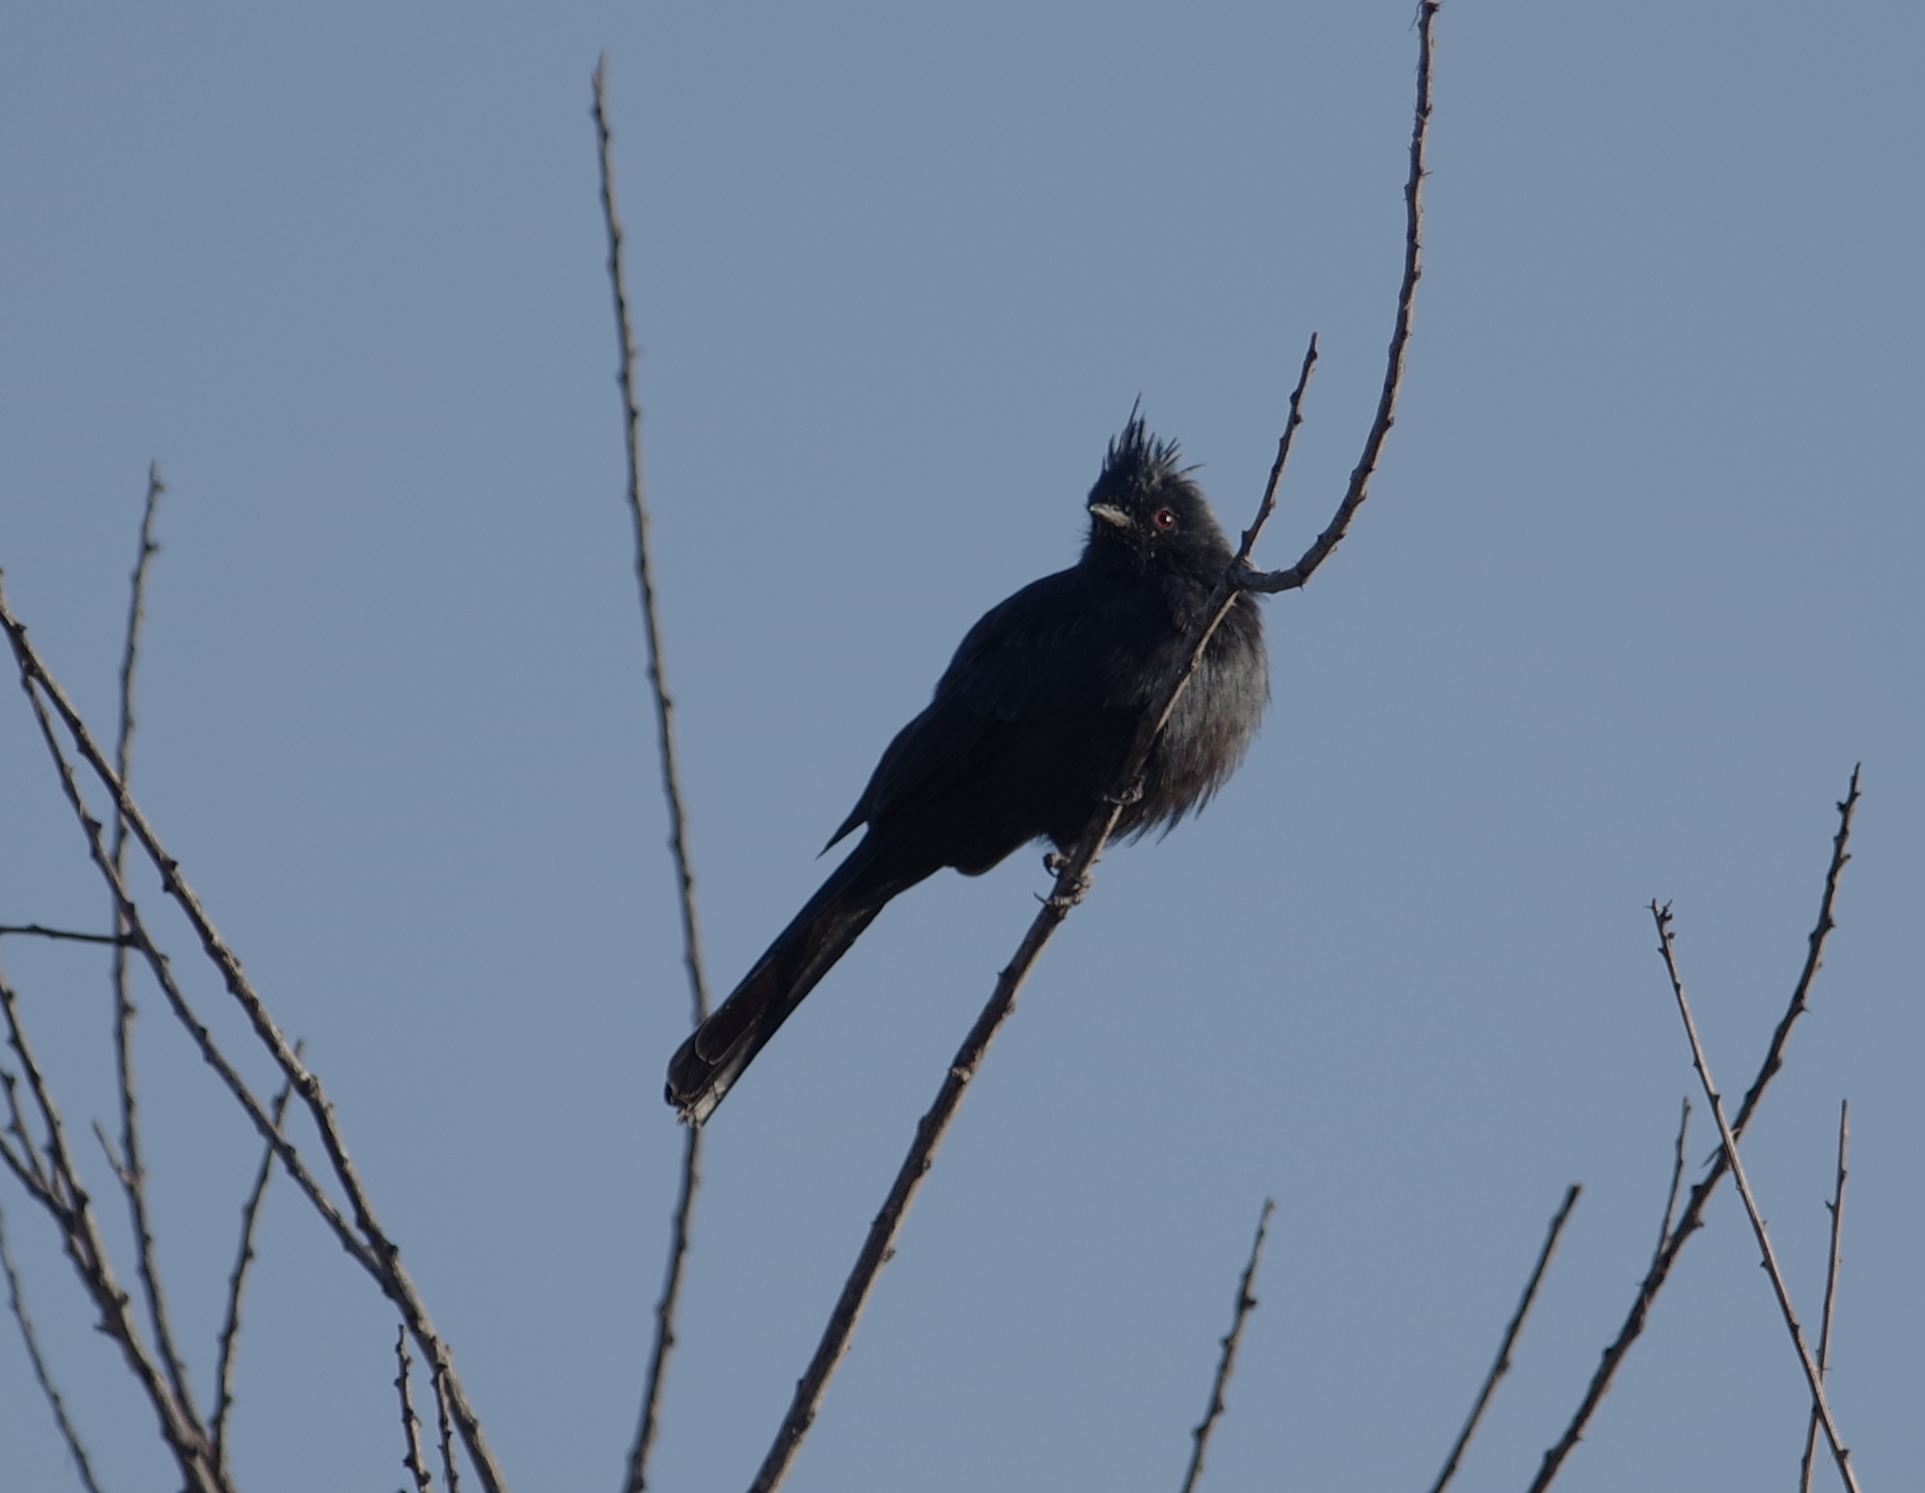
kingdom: Animalia
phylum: Chordata
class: Aves
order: Passeriformes
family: Ptilogonatidae
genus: Phainopepla
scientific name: Phainopepla nitens
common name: Phainopepla
